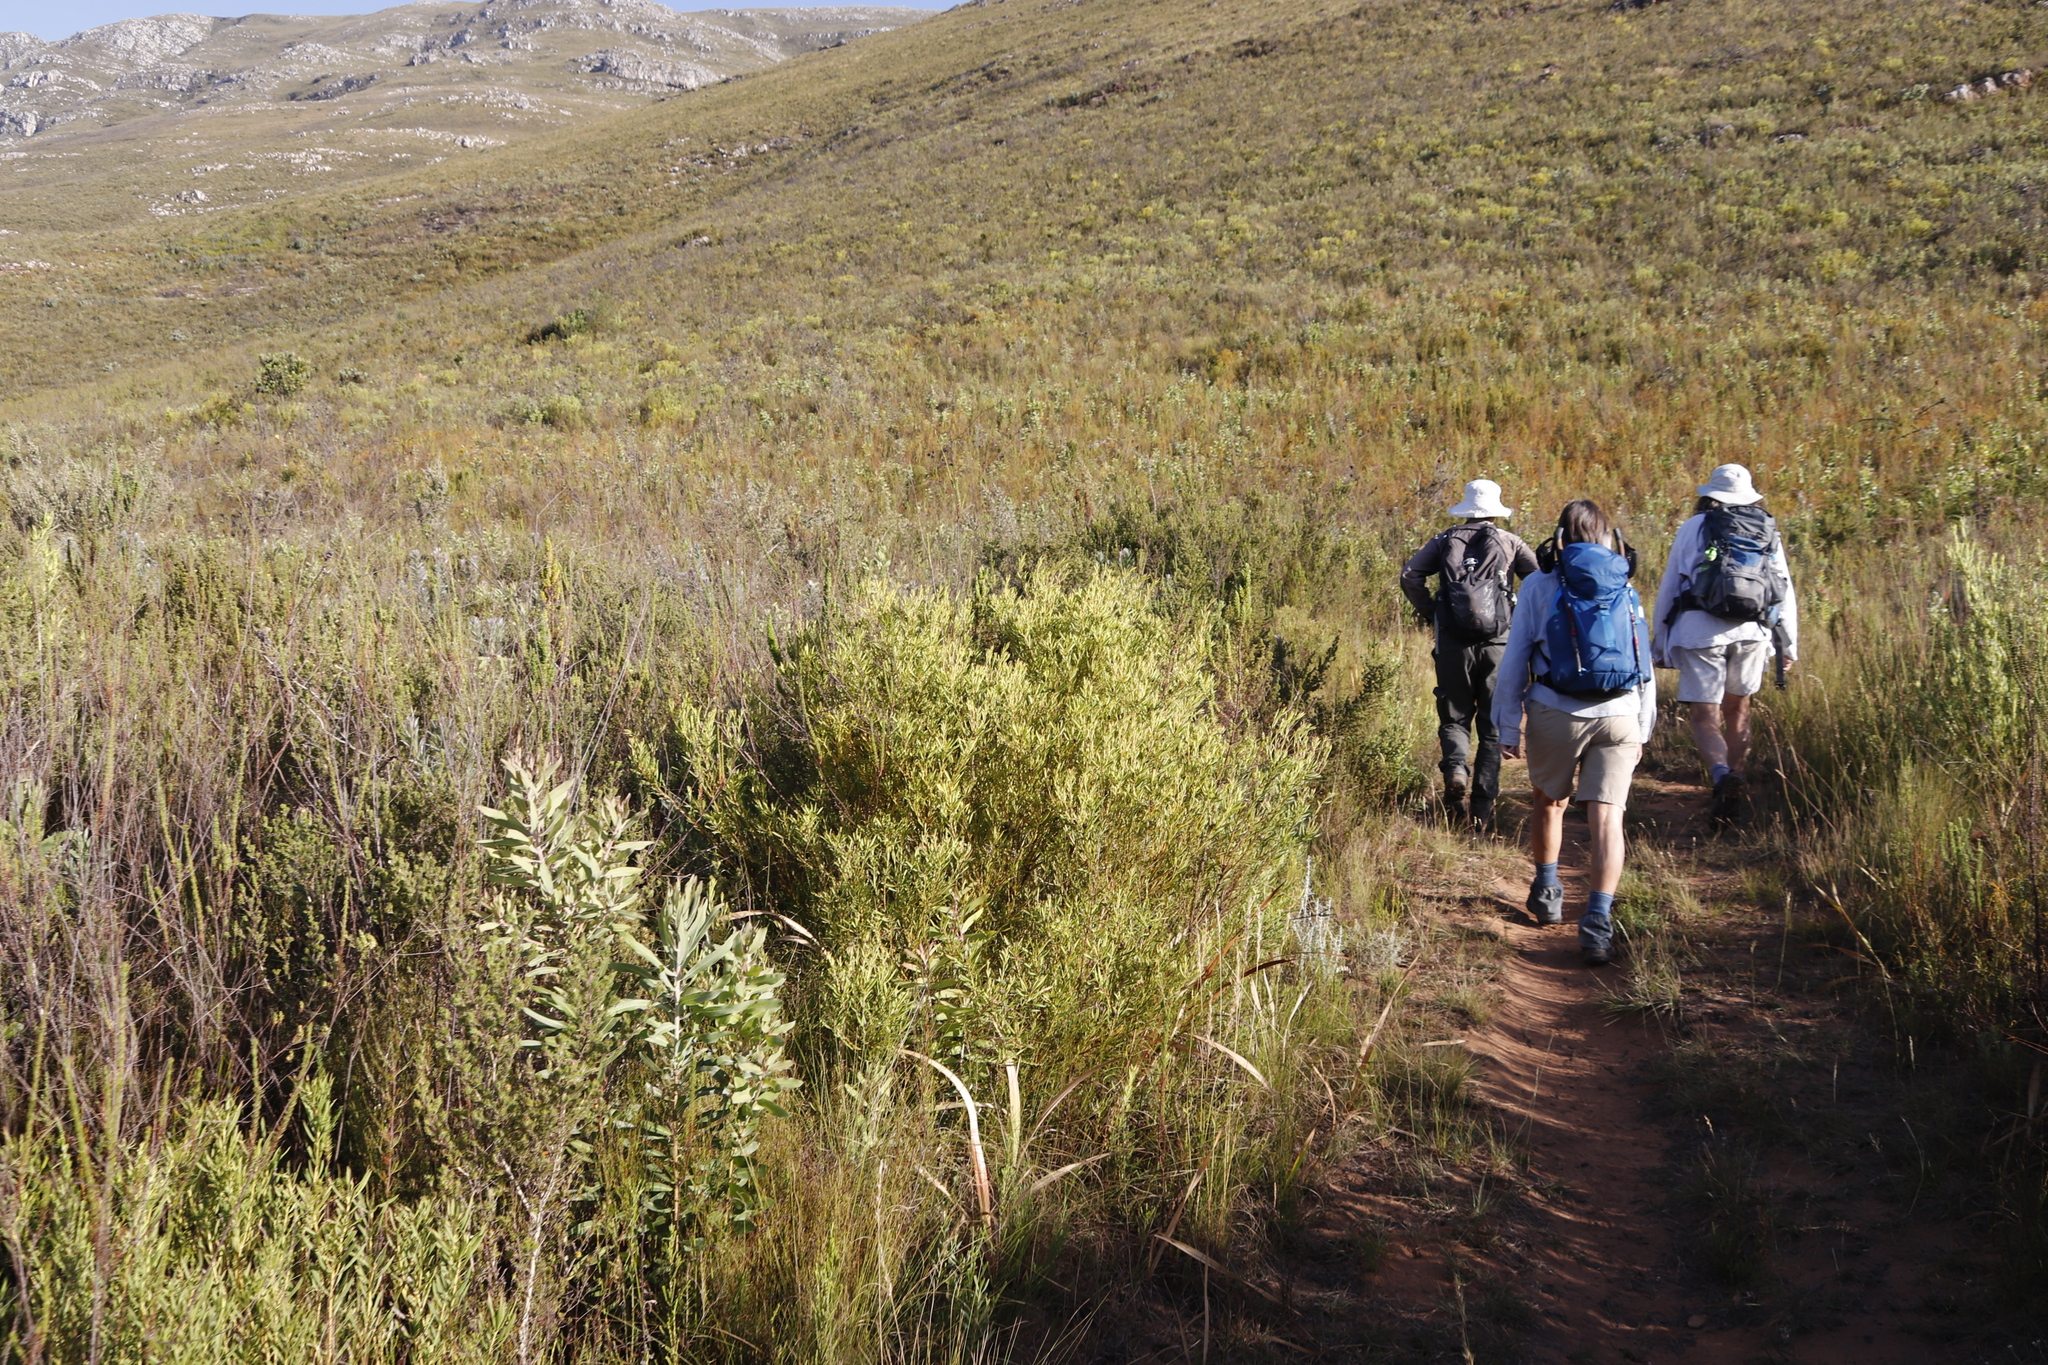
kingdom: Plantae
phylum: Tracheophyta
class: Magnoliopsida
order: Proteales
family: Proteaceae
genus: Leucadendron
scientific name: Leucadendron salignum
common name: Common sunshine conebush
